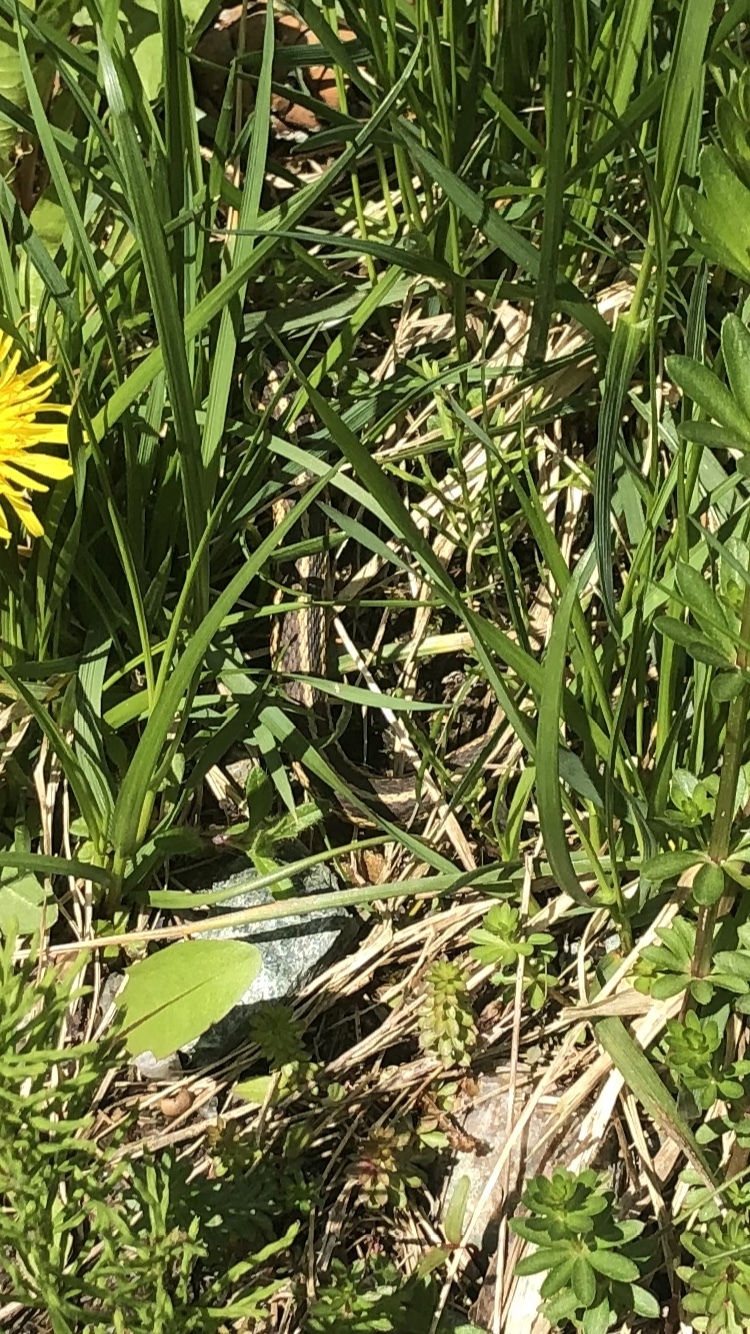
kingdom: Animalia
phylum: Chordata
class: Squamata
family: Colubridae
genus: Thamnophis
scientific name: Thamnophis sirtalis
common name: Common garter snake
